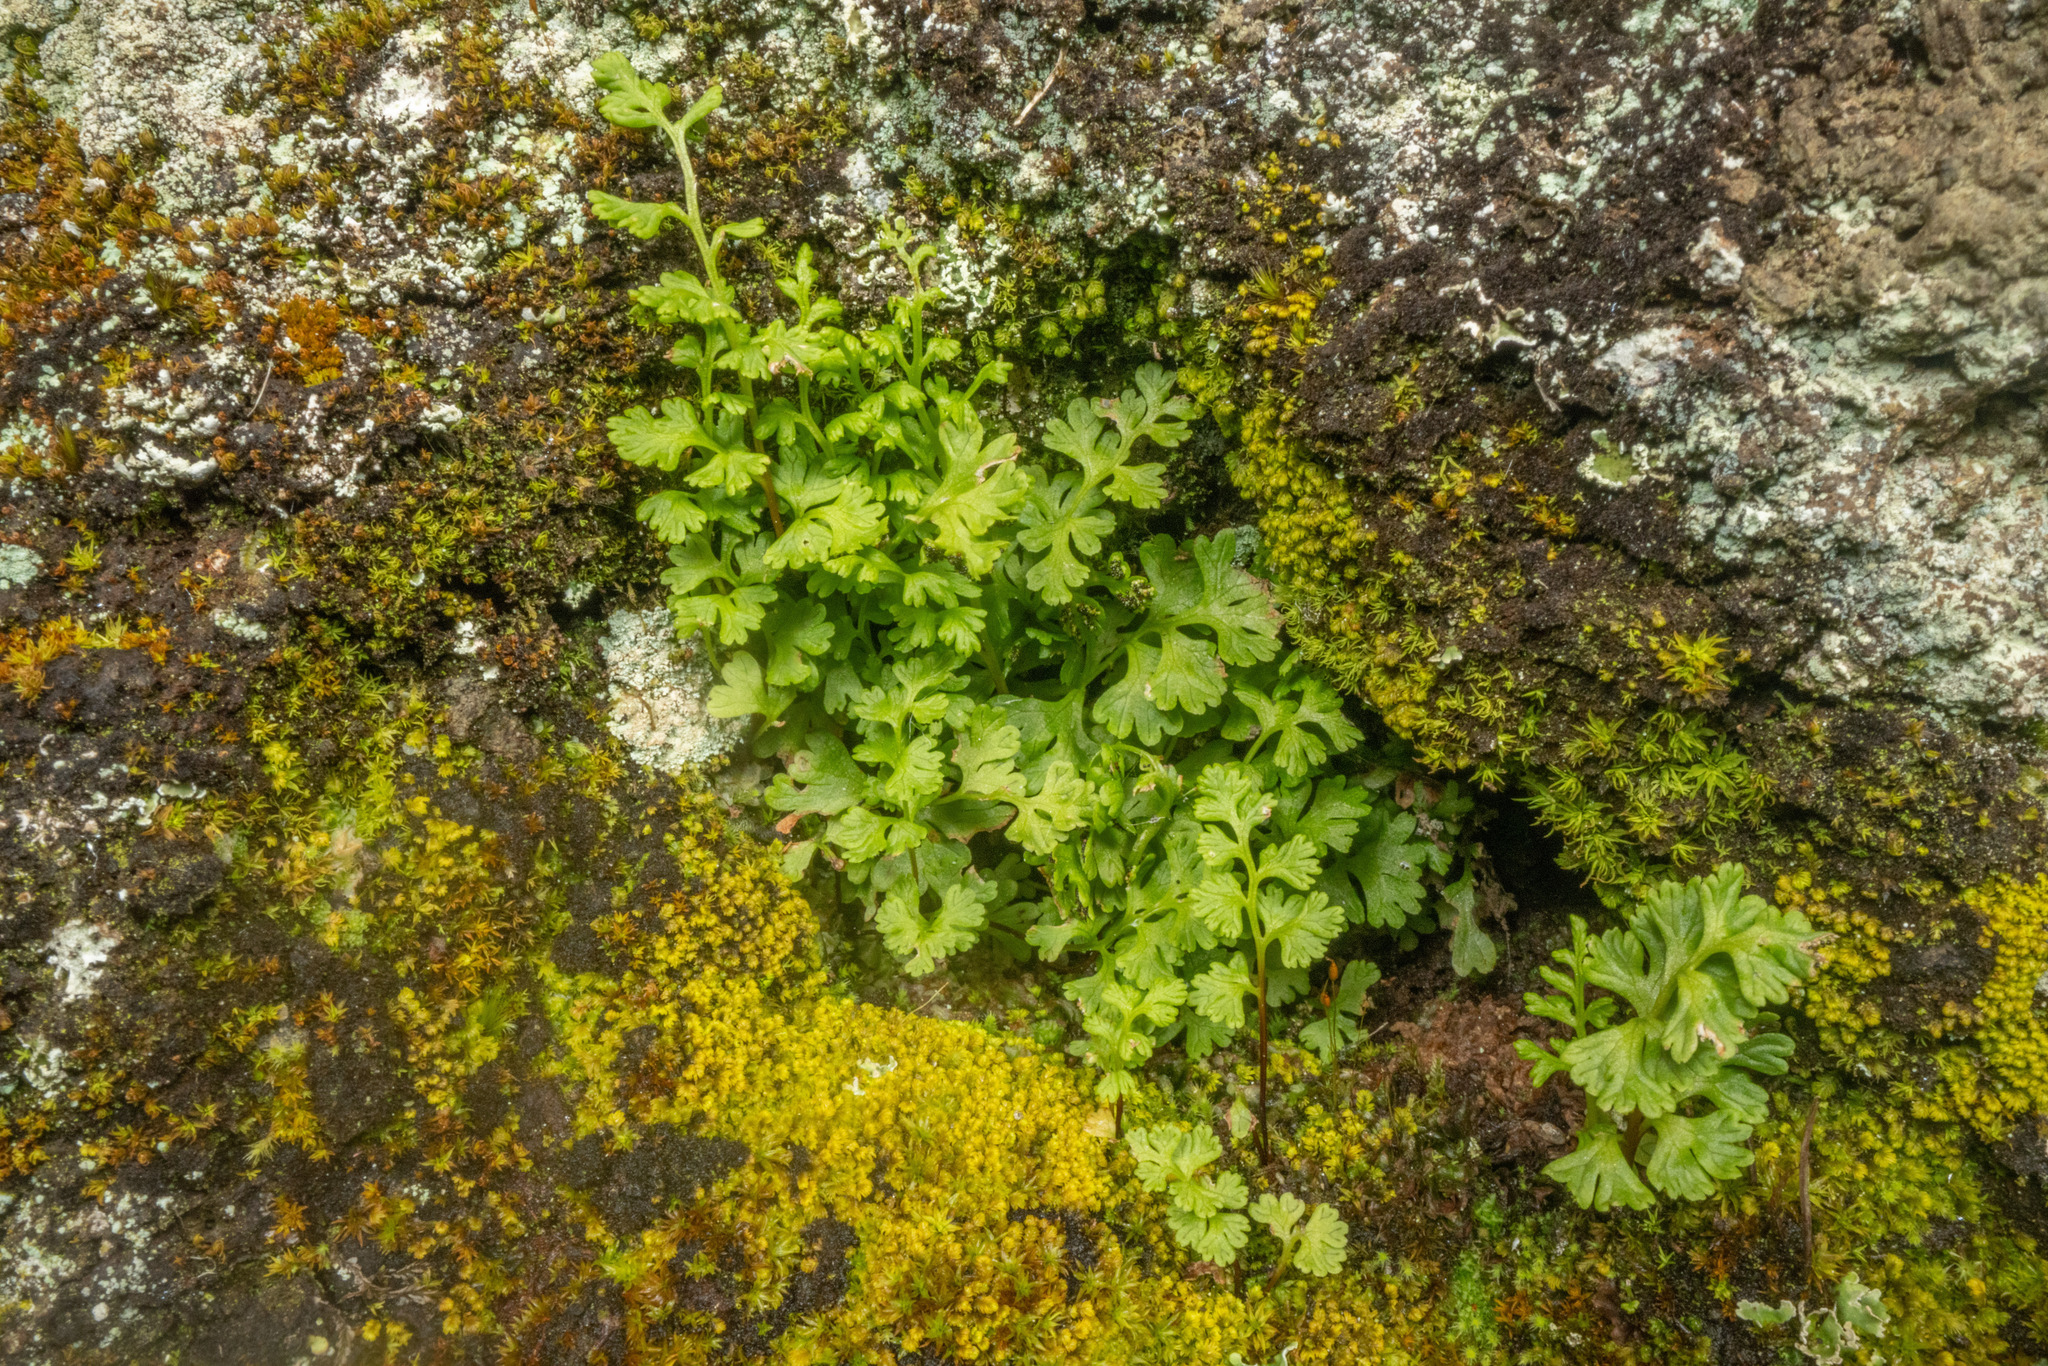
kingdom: Plantae
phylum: Tracheophyta
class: Polypodiopsida
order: Polypodiales
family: Pteridaceae
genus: Anogramma
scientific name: Anogramma leptophylla
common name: Jersey fern
